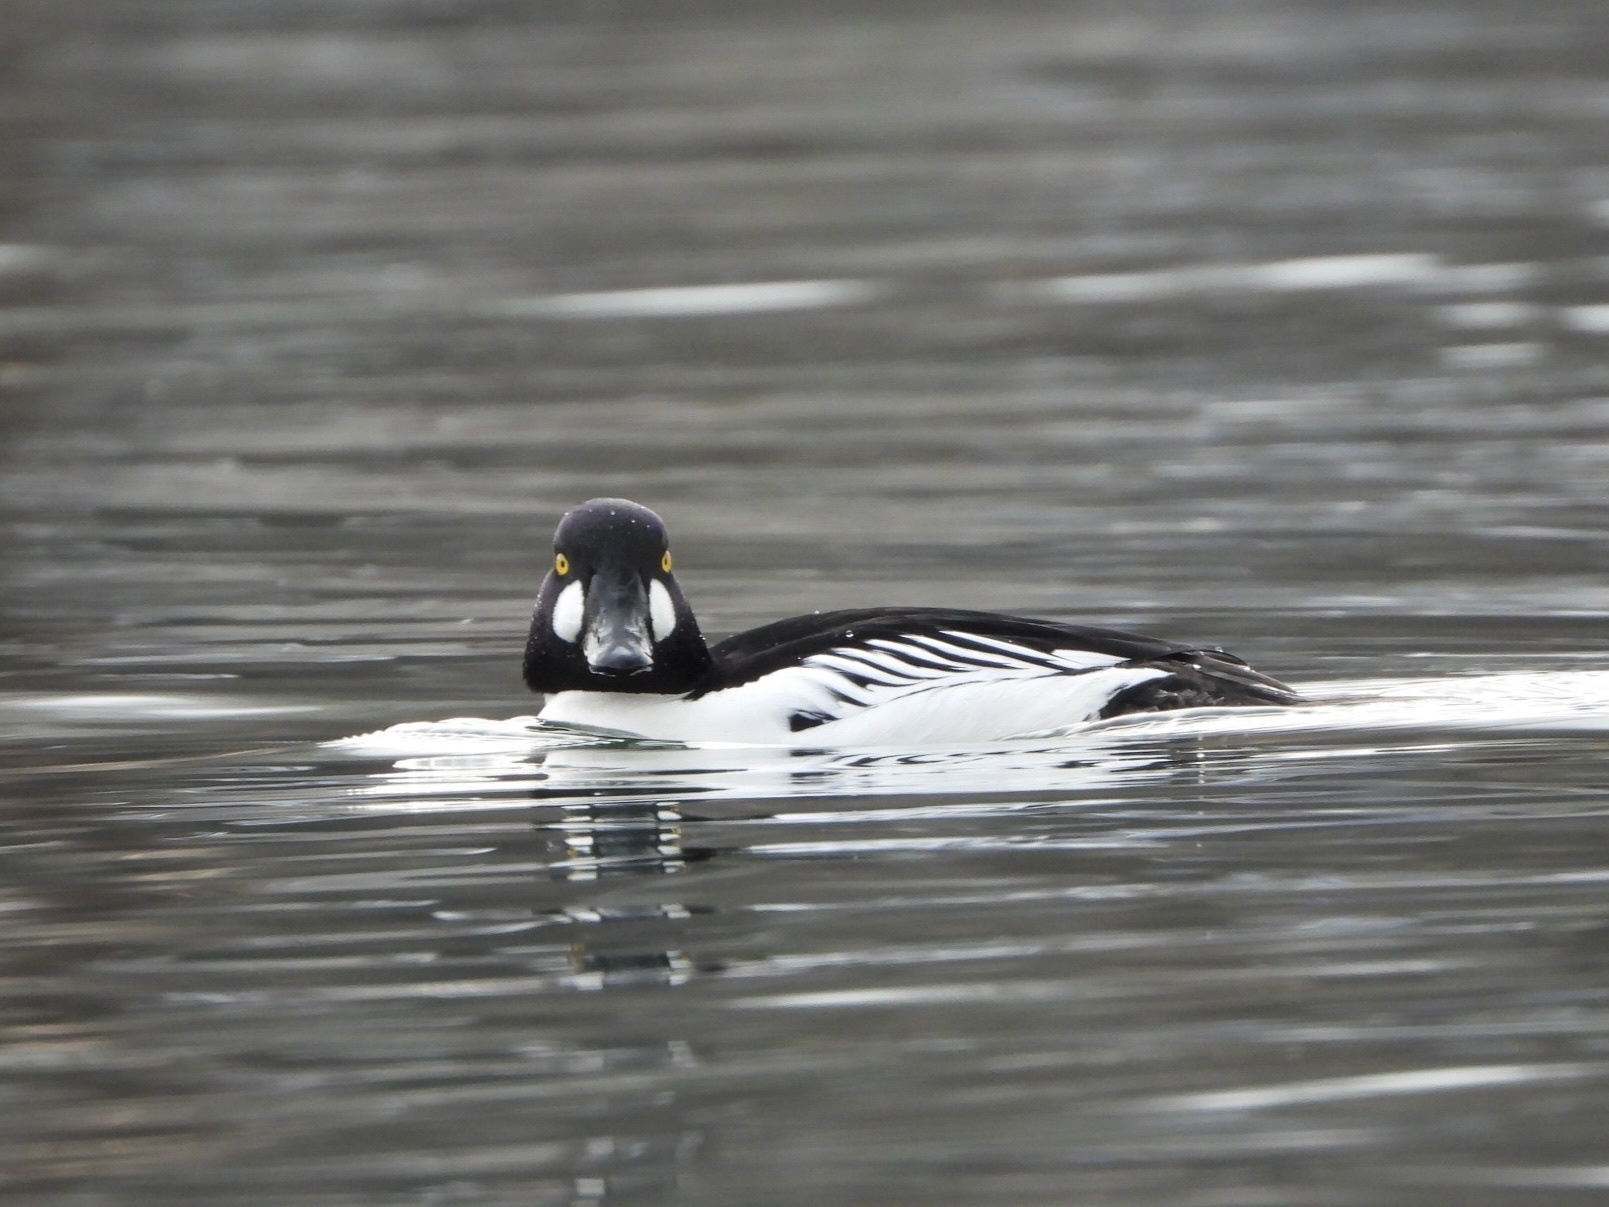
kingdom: Animalia
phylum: Chordata
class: Aves
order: Anseriformes
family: Anatidae
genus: Bucephala
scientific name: Bucephala clangula
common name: Common goldeneye
